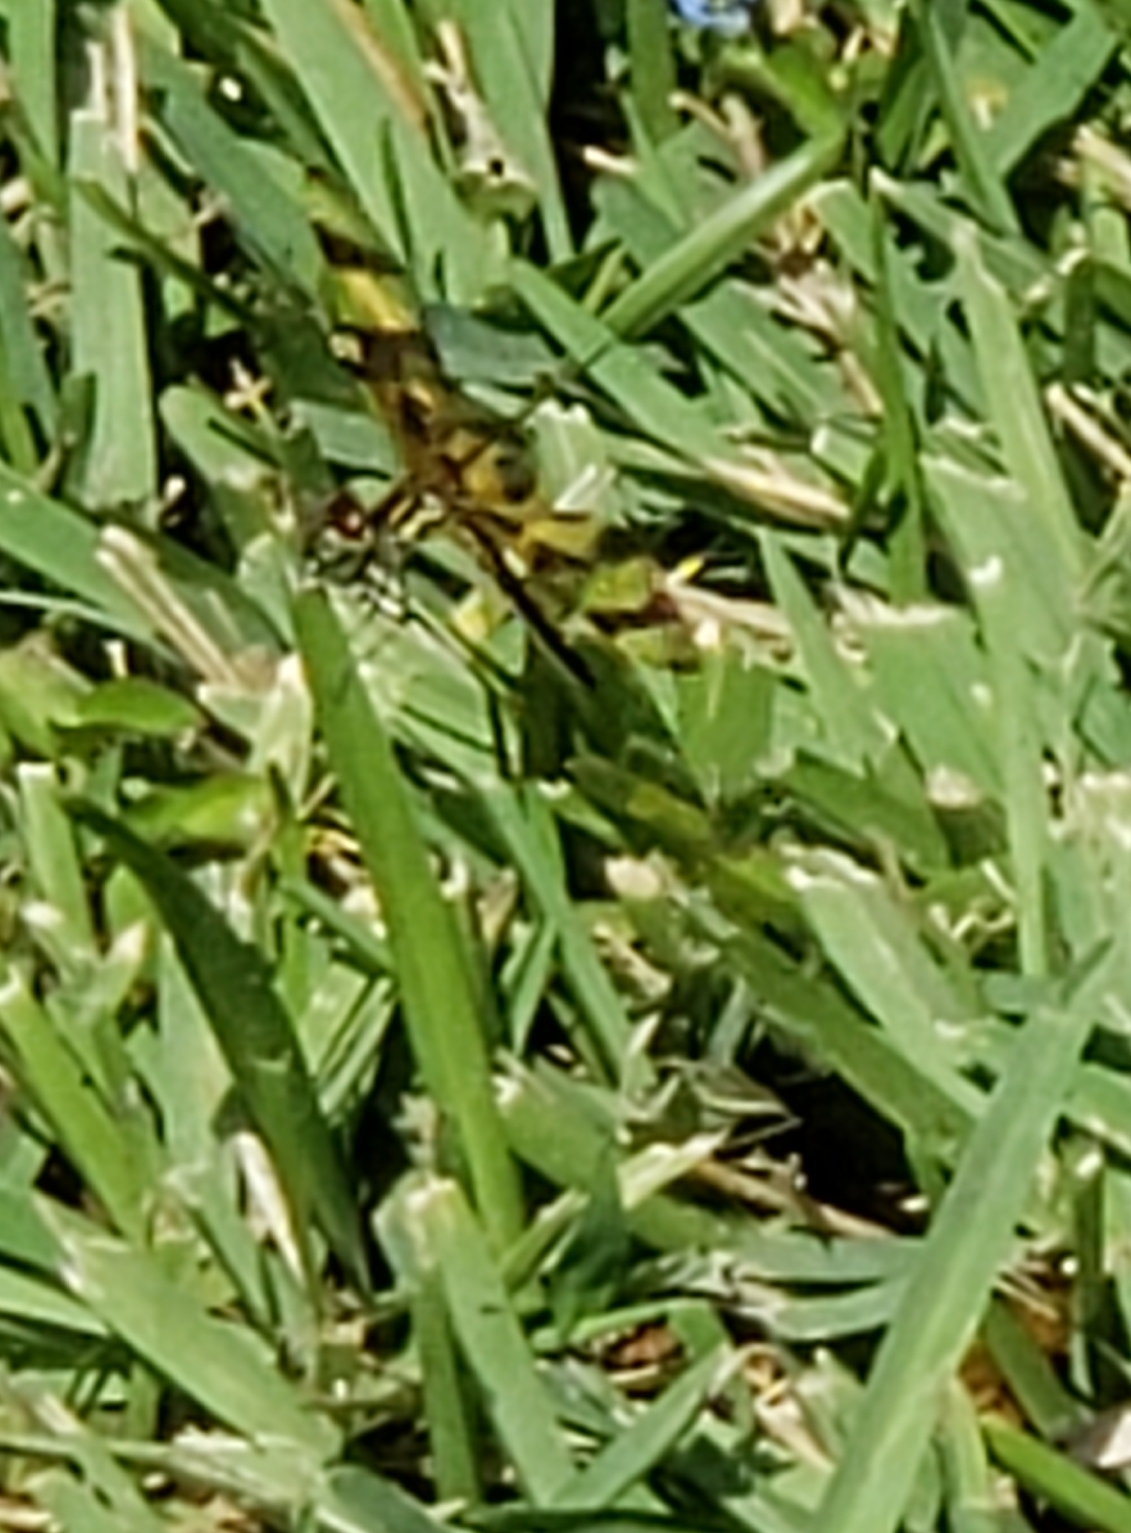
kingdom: Animalia
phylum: Arthropoda
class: Insecta
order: Odonata
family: Libellulidae
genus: Celithemis
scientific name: Celithemis eponina
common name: Halloween pennant
